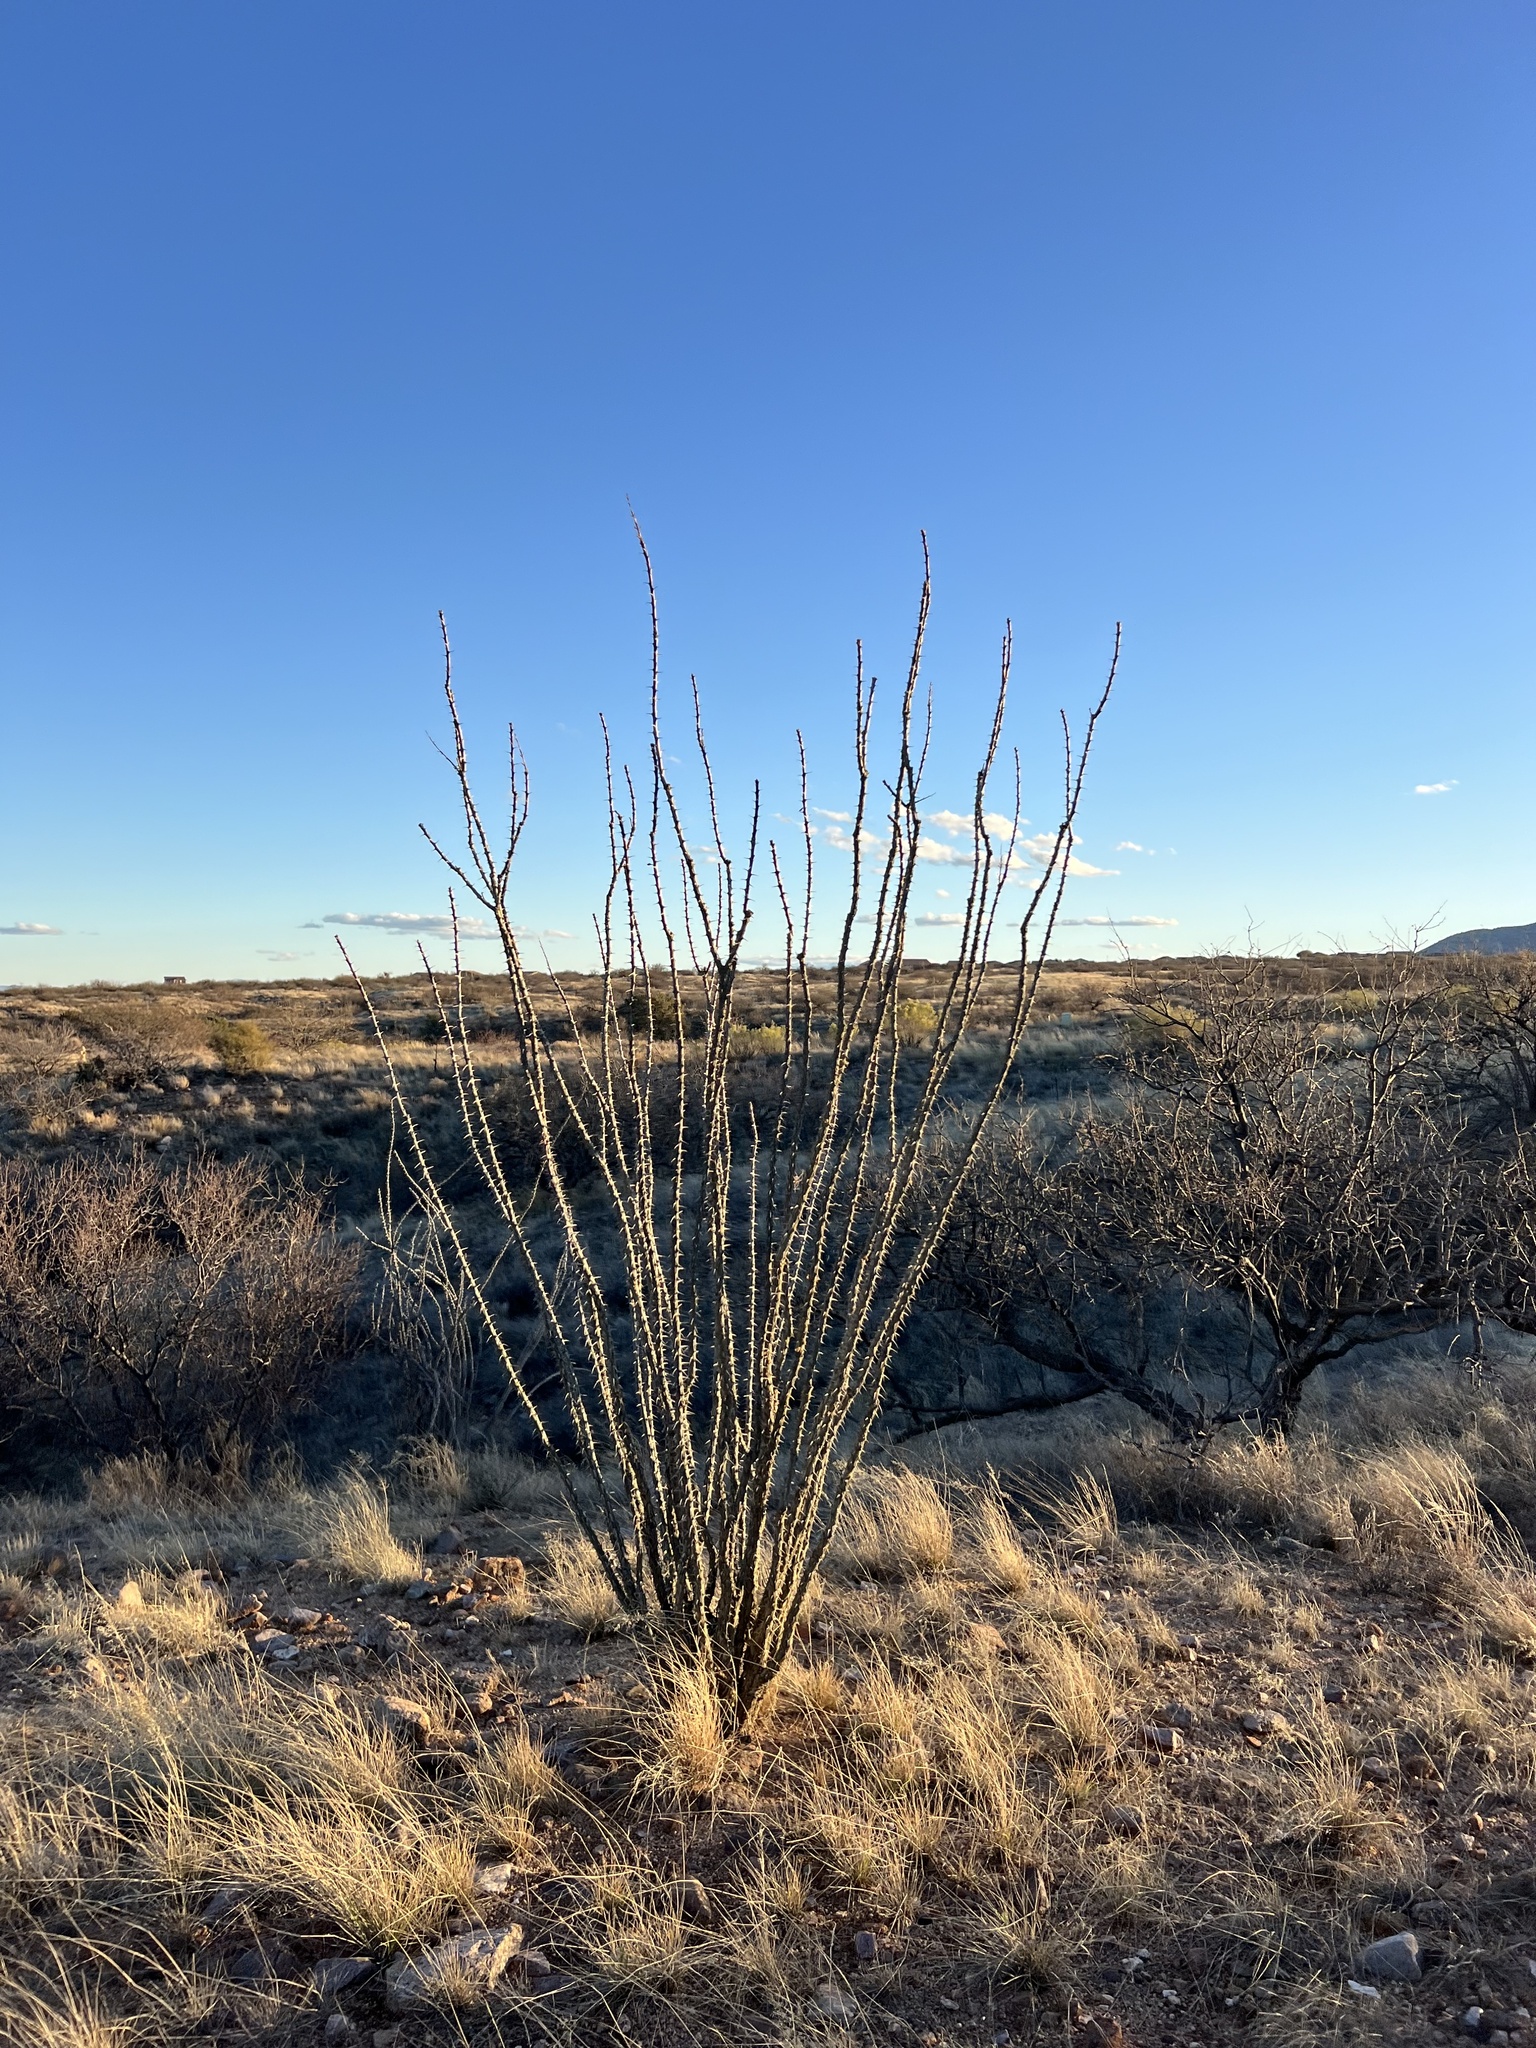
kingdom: Plantae
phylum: Tracheophyta
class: Magnoliopsida
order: Ericales
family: Fouquieriaceae
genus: Fouquieria
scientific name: Fouquieria splendens
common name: Vine-cactus
